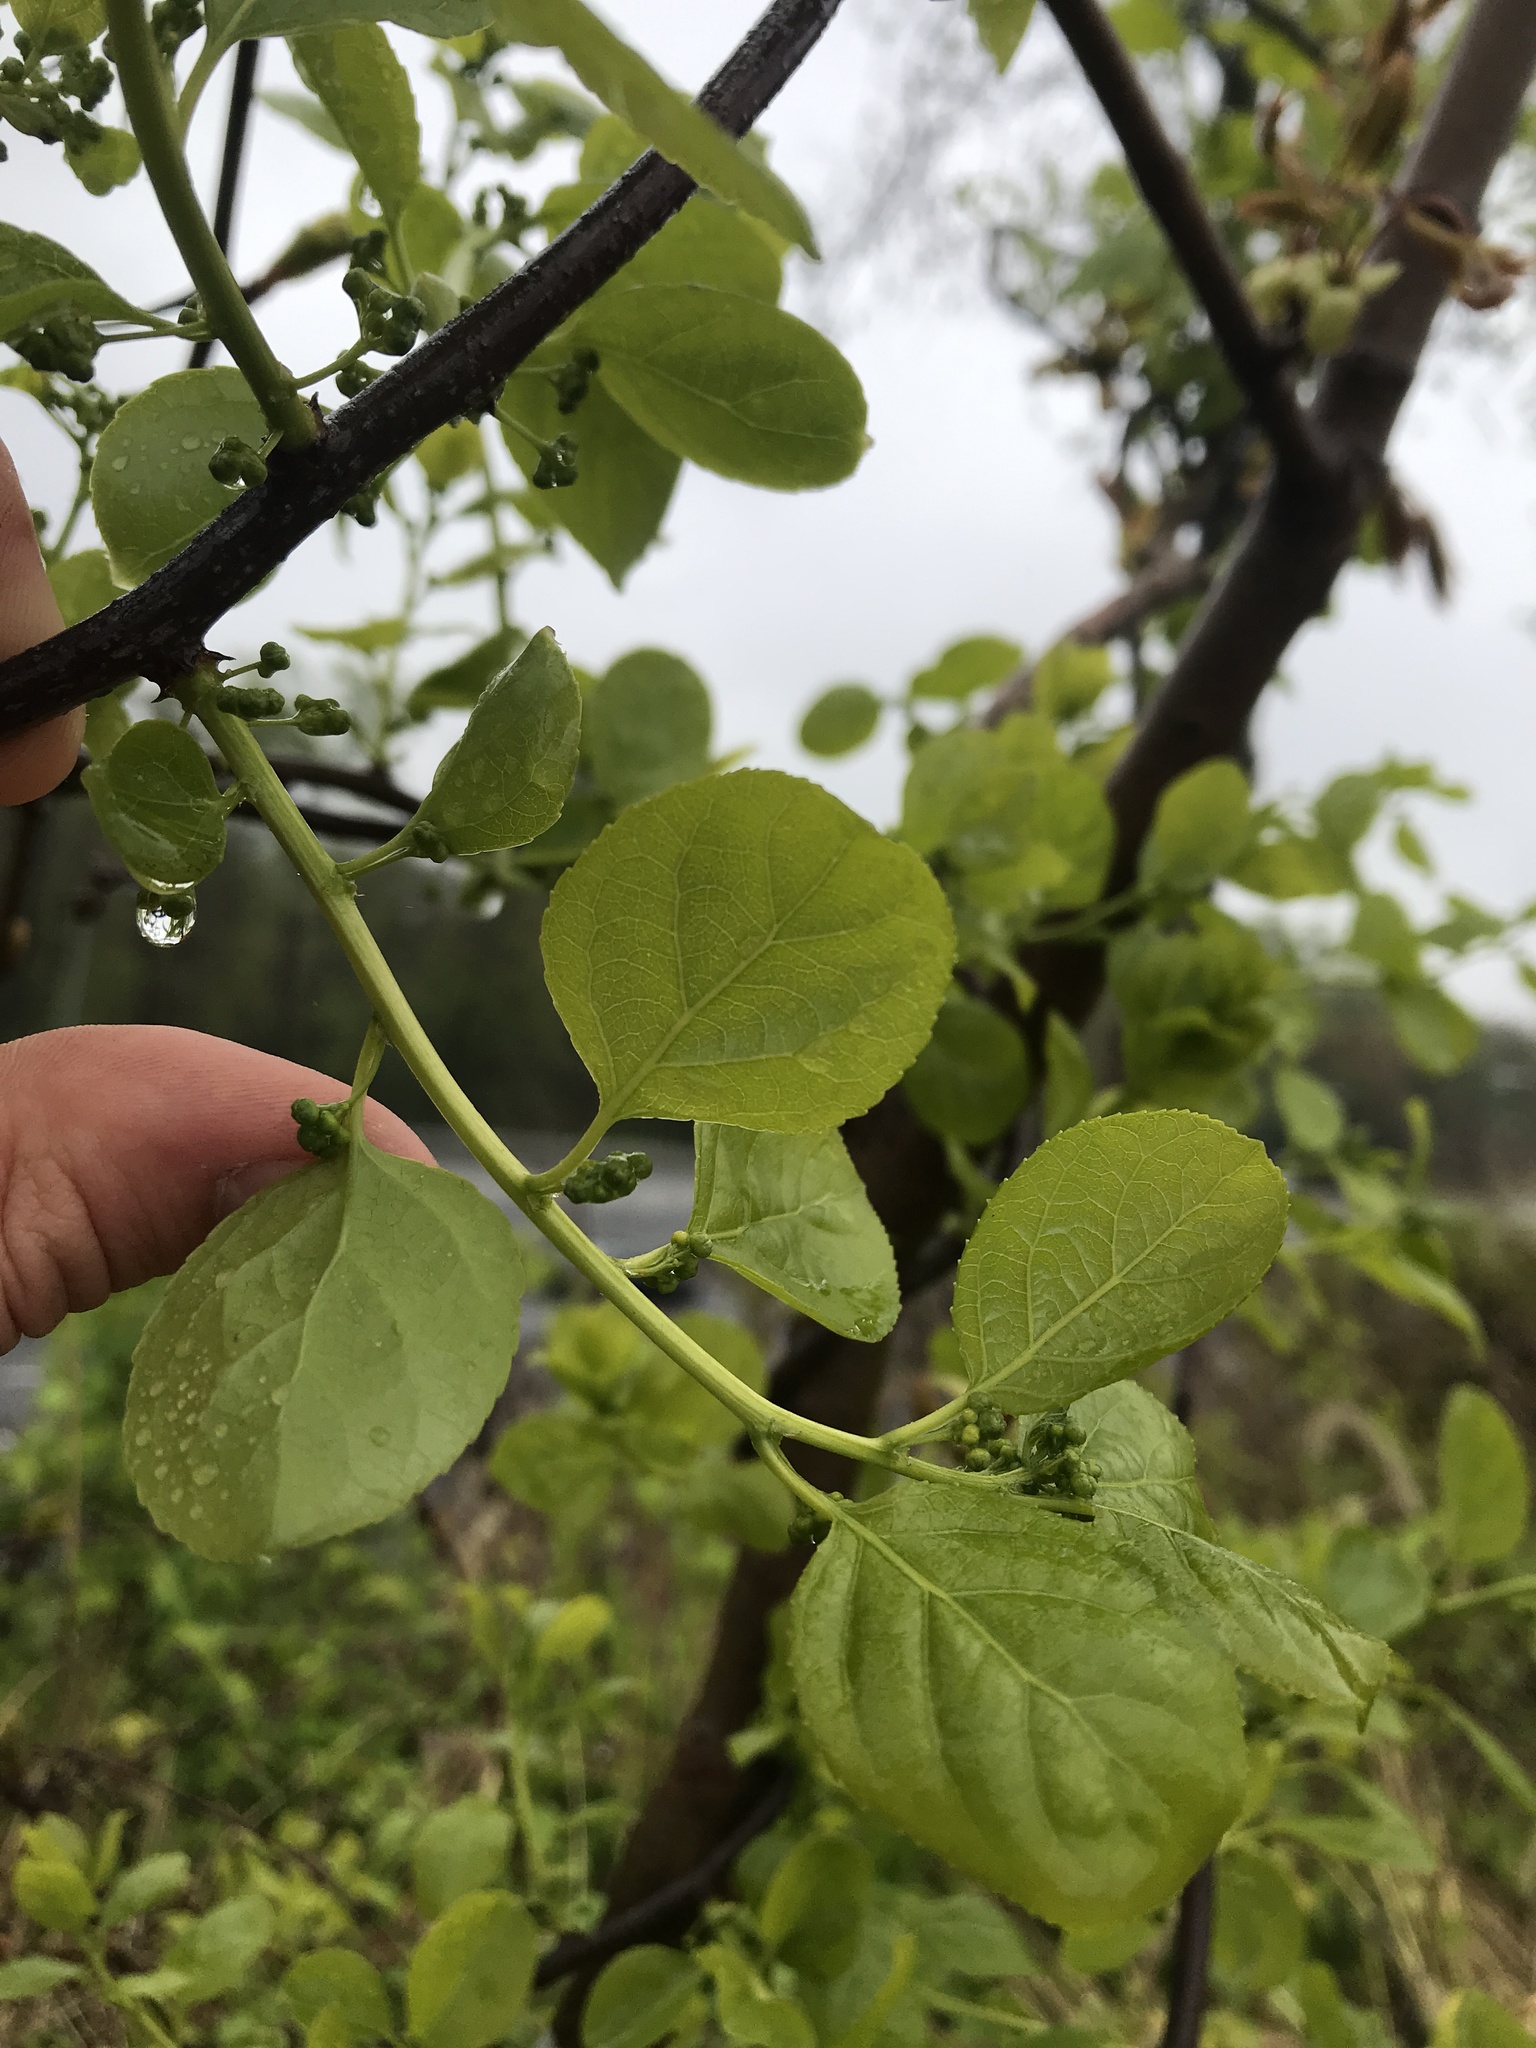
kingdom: Plantae
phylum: Tracheophyta
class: Magnoliopsida
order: Celastrales
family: Celastraceae
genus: Celastrus
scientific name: Celastrus orbiculatus
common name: Oriental bittersweet
